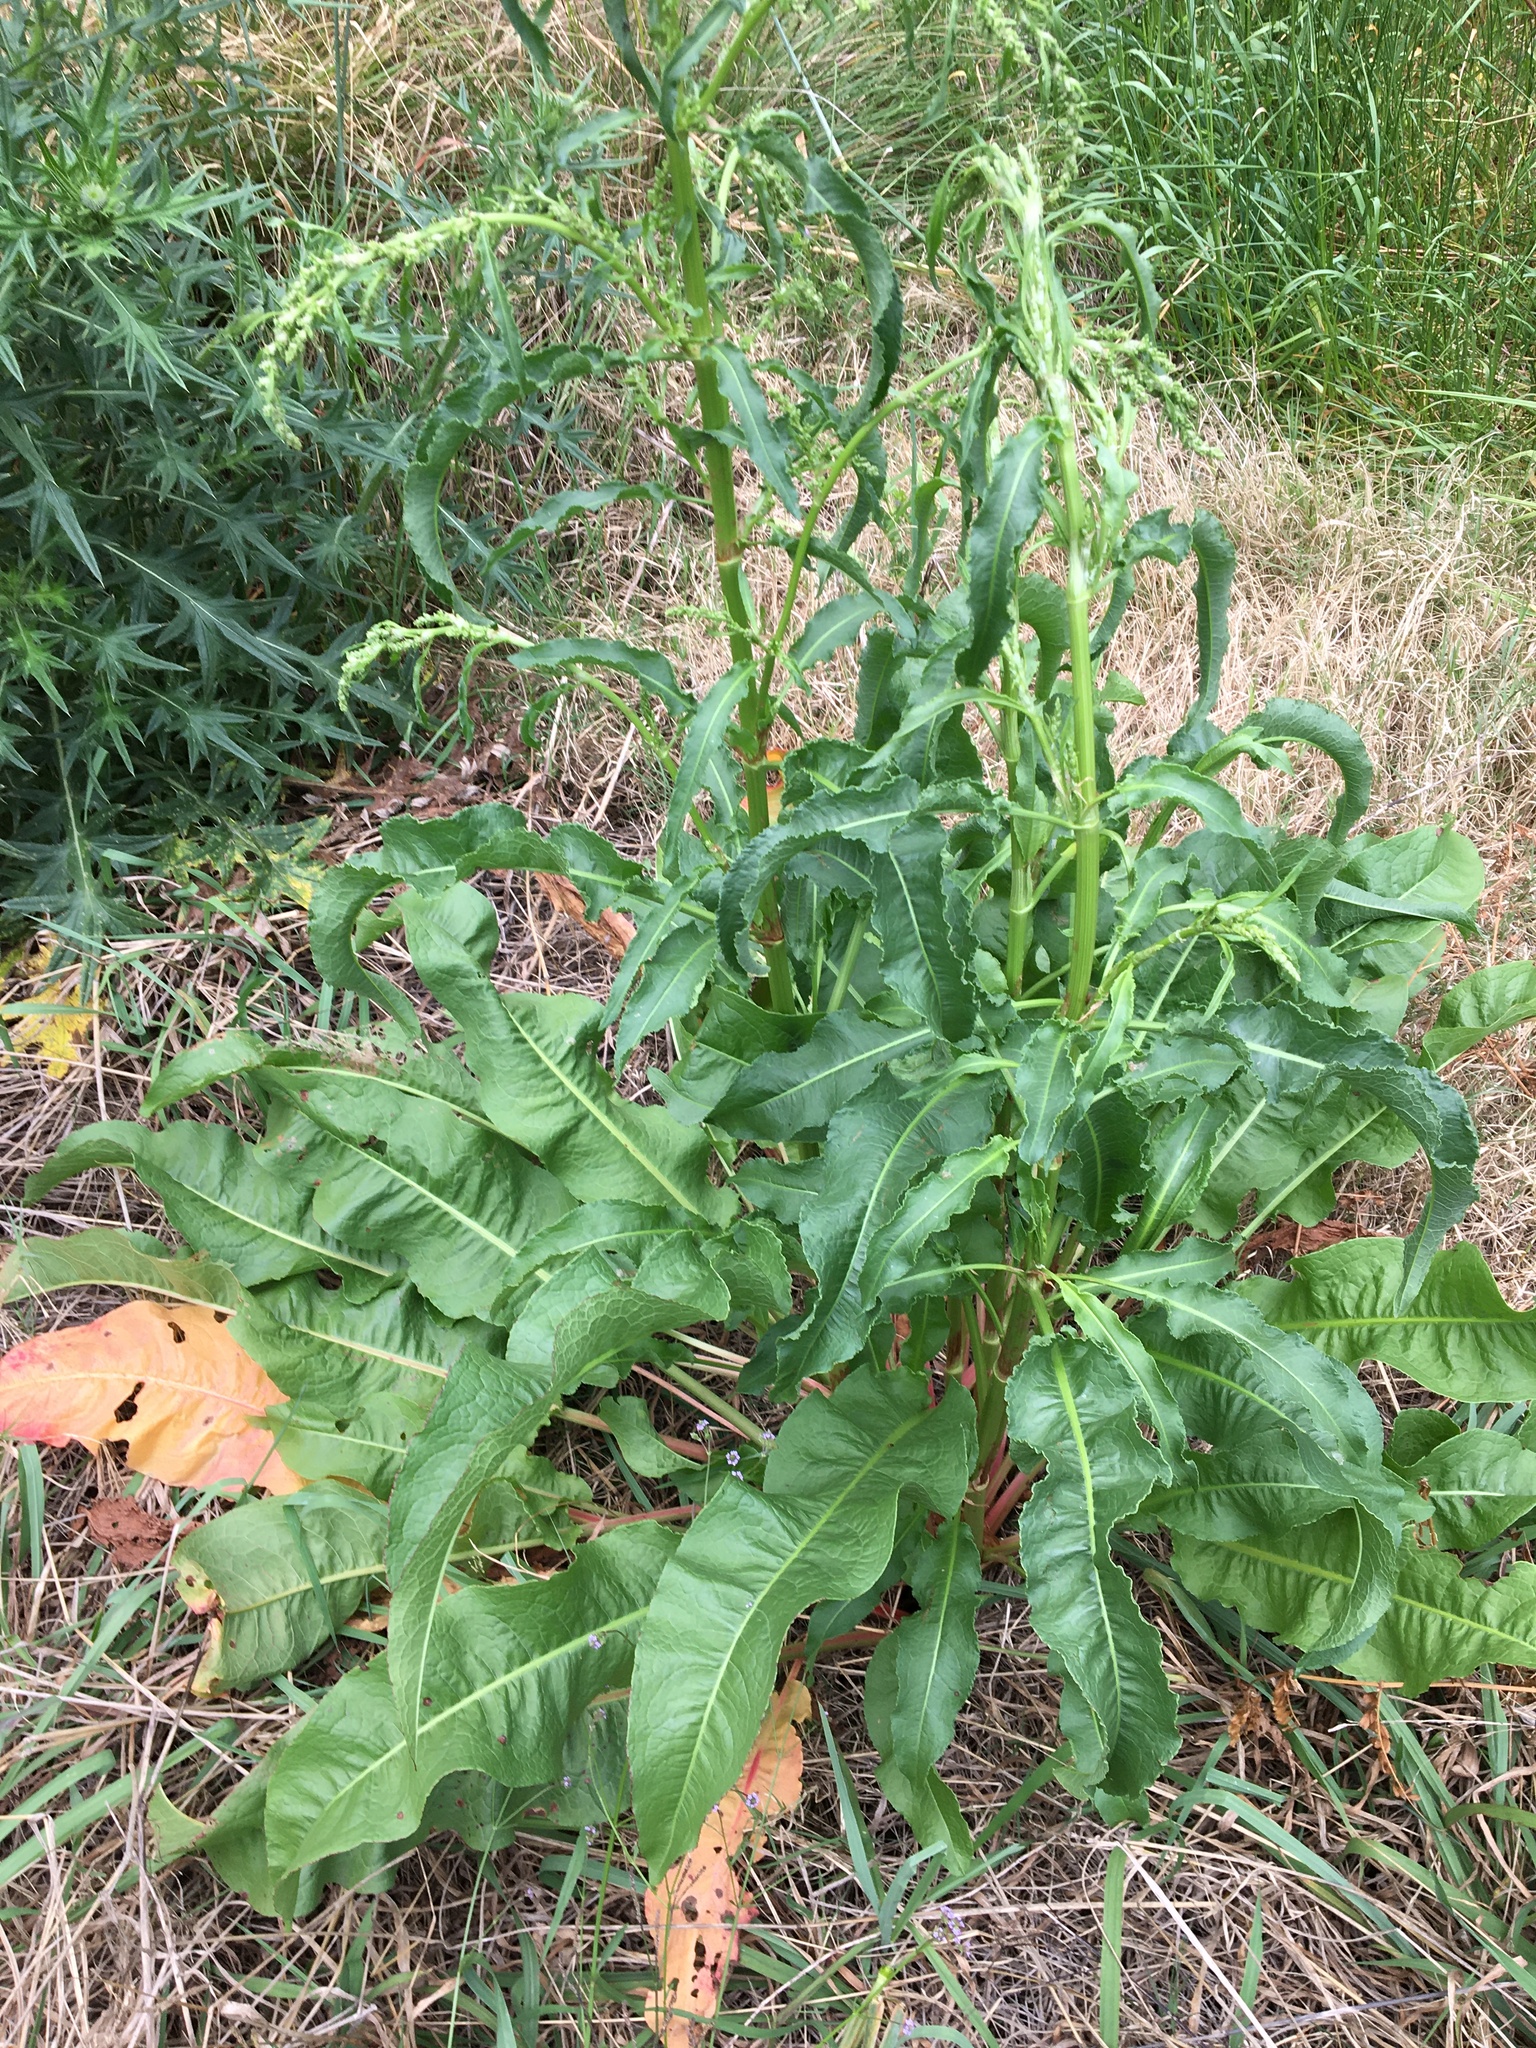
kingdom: Plantae
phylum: Tracheophyta
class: Magnoliopsida
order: Caryophyllales
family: Polygonaceae
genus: Rumex
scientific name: Rumex crispus
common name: Curled dock
